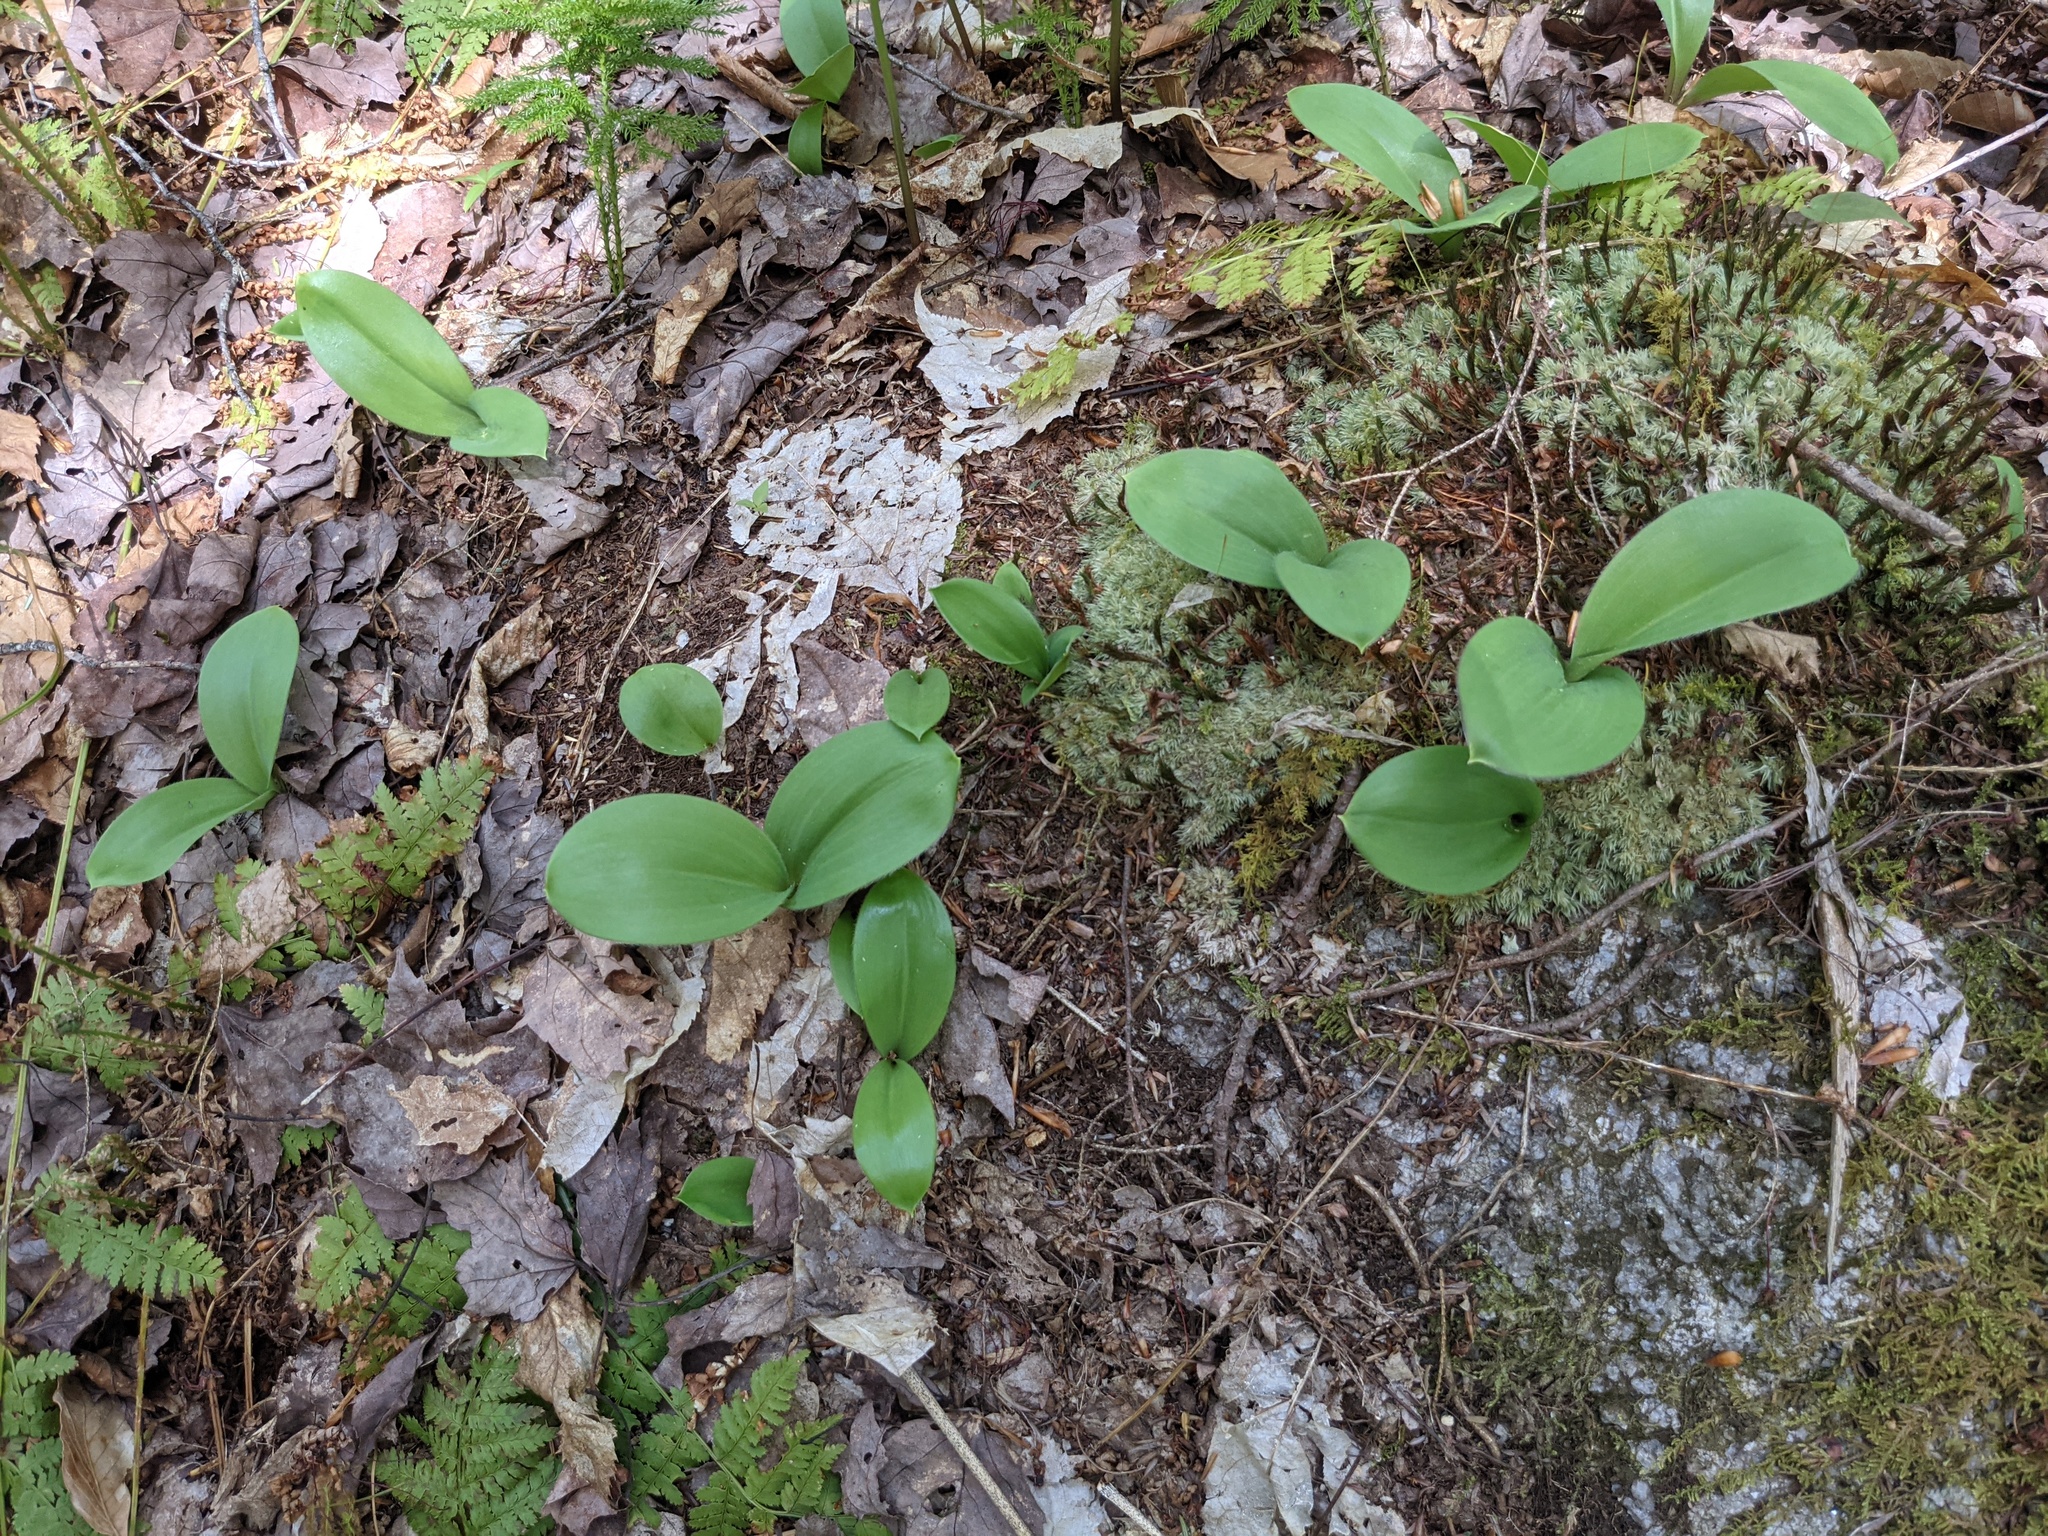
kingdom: Plantae
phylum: Tracheophyta
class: Liliopsida
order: Liliales
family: Liliaceae
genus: Clintonia
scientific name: Clintonia borealis
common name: Yellow clintonia
